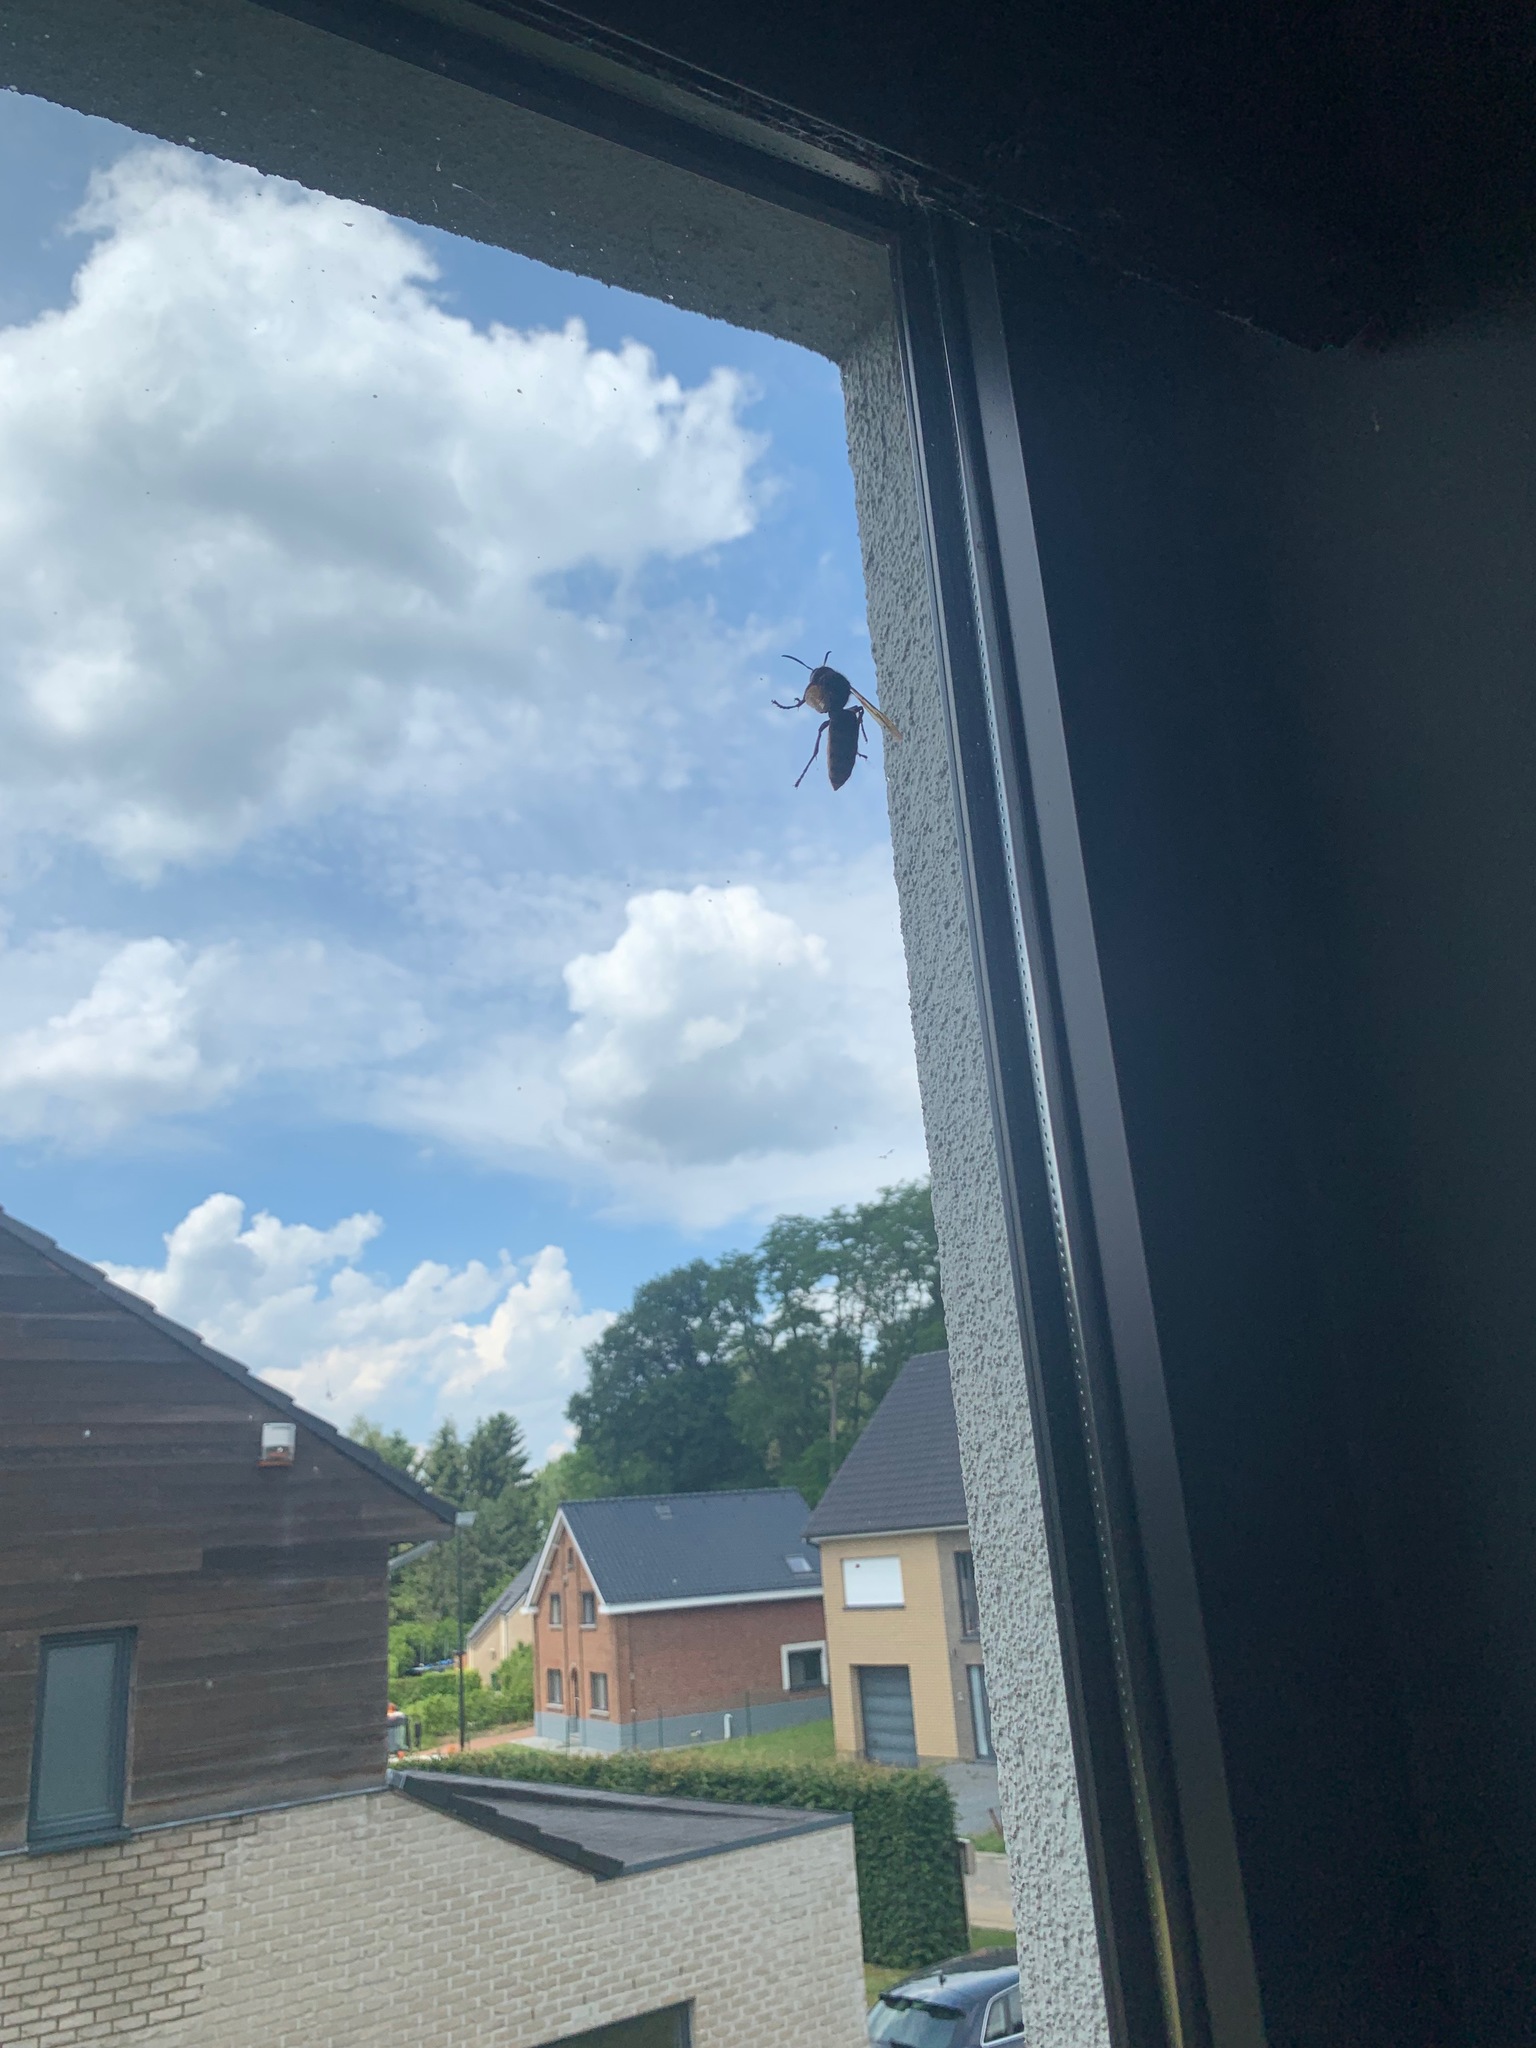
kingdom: Animalia
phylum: Arthropoda
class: Insecta
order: Hymenoptera
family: Vespidae
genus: Vespa
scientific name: Vespa crabro
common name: Hornet
